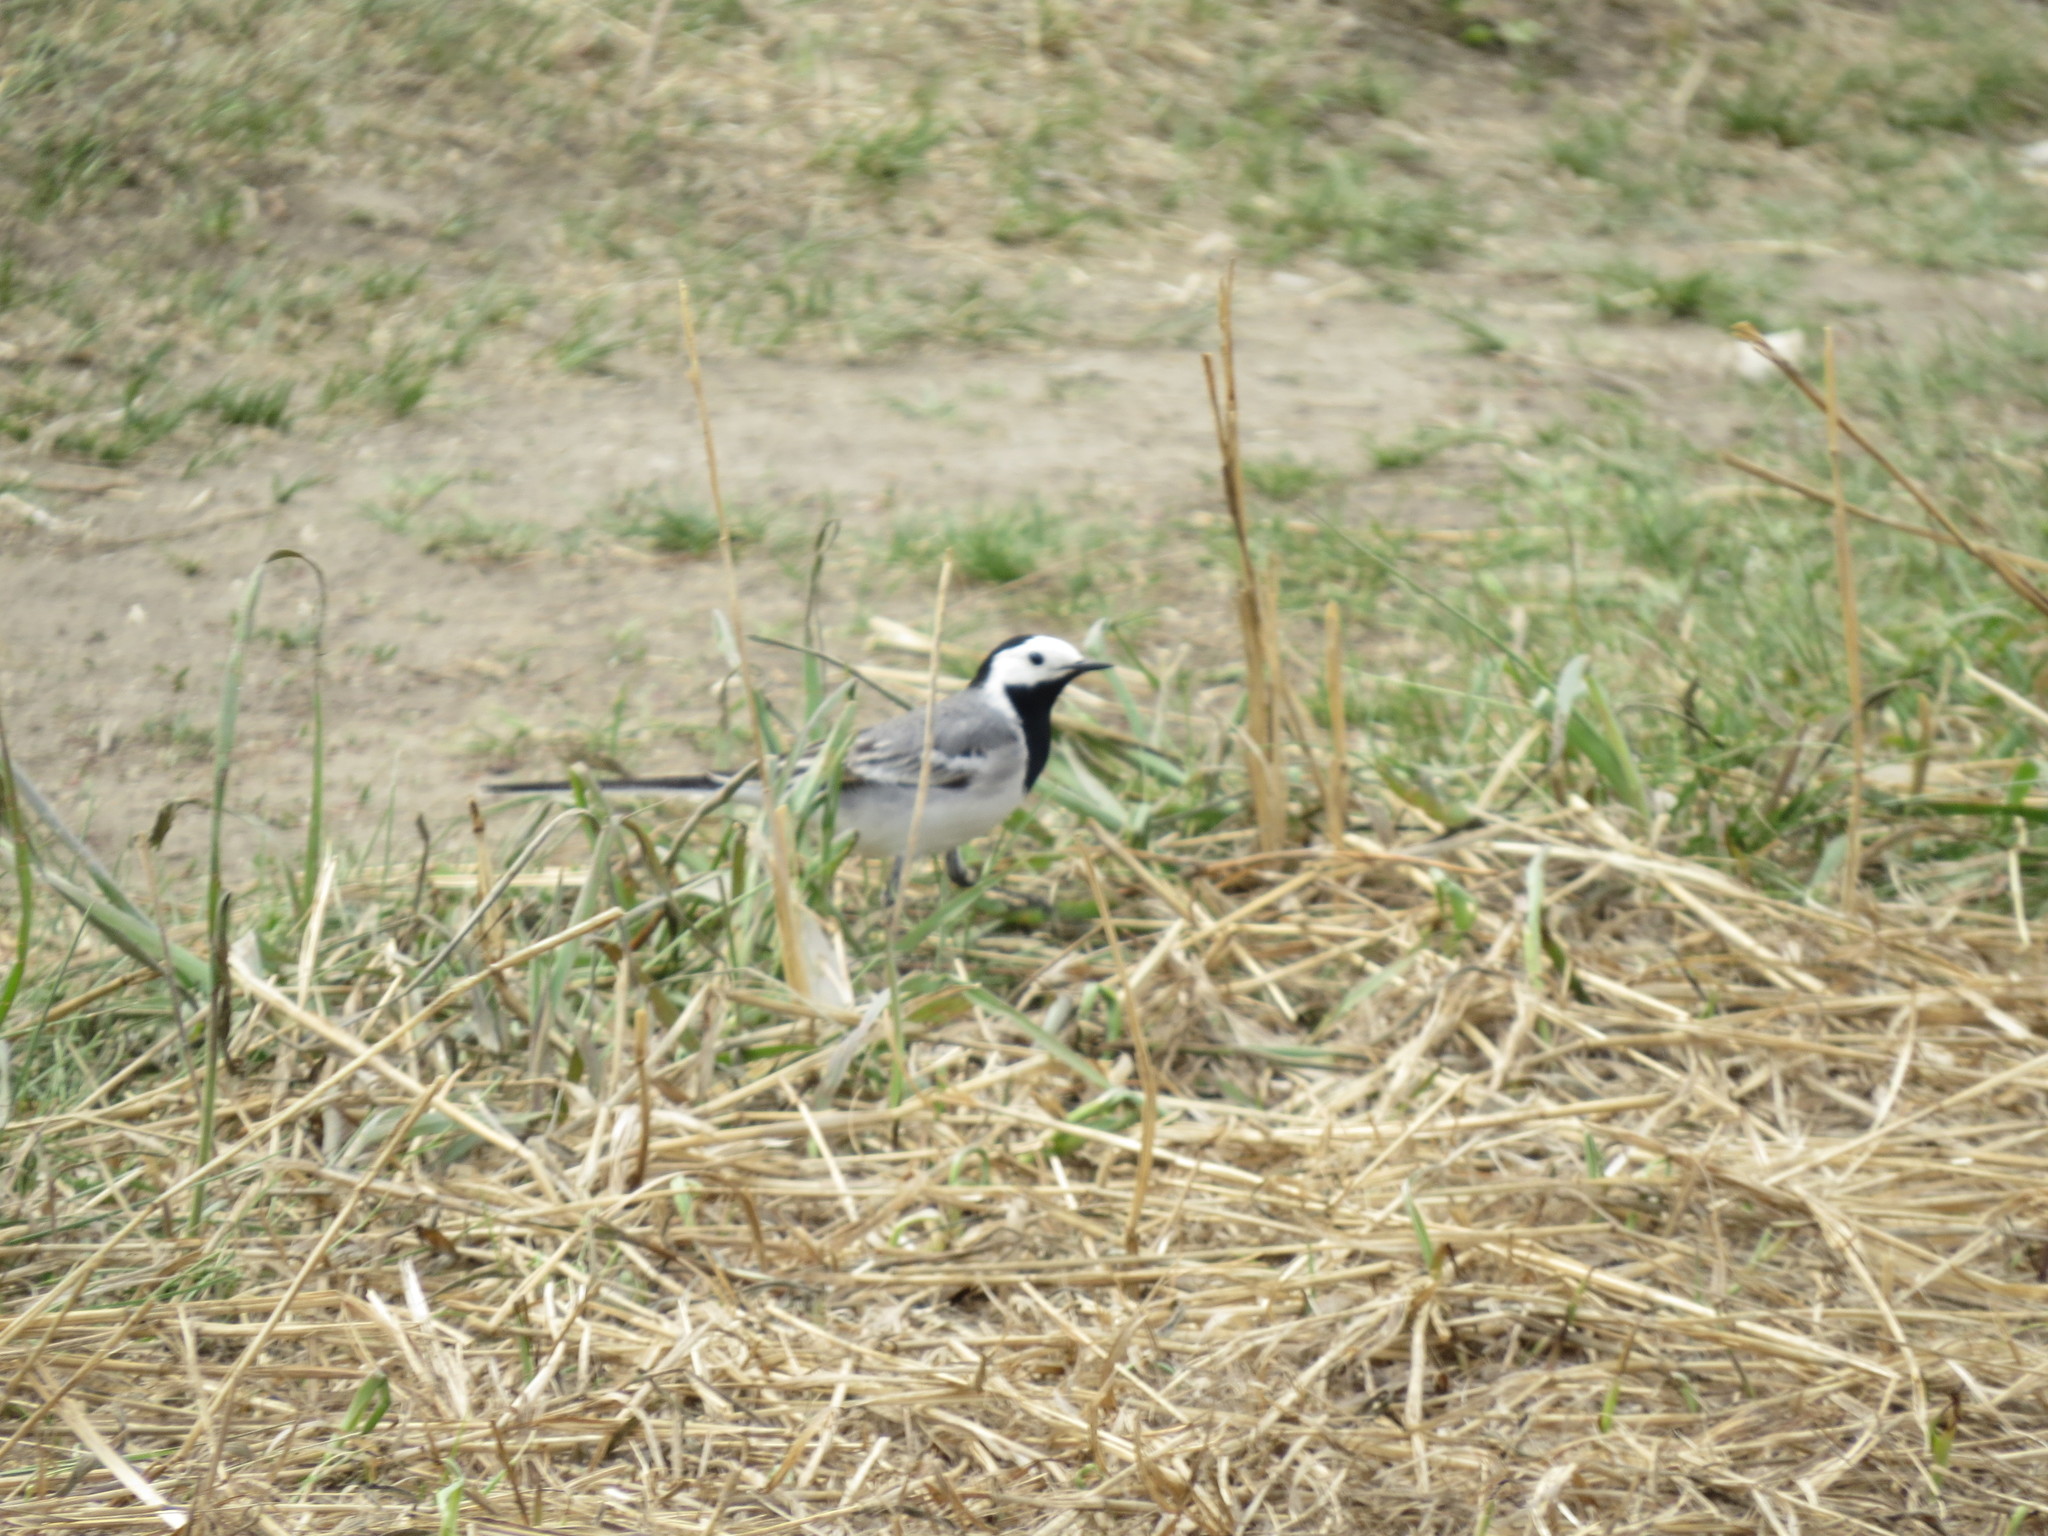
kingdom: Animalia
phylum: Chordata
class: Aves
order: Passeriformes
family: Motacillidae
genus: Motacilla
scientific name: Motacilla alba
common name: White wagtail
